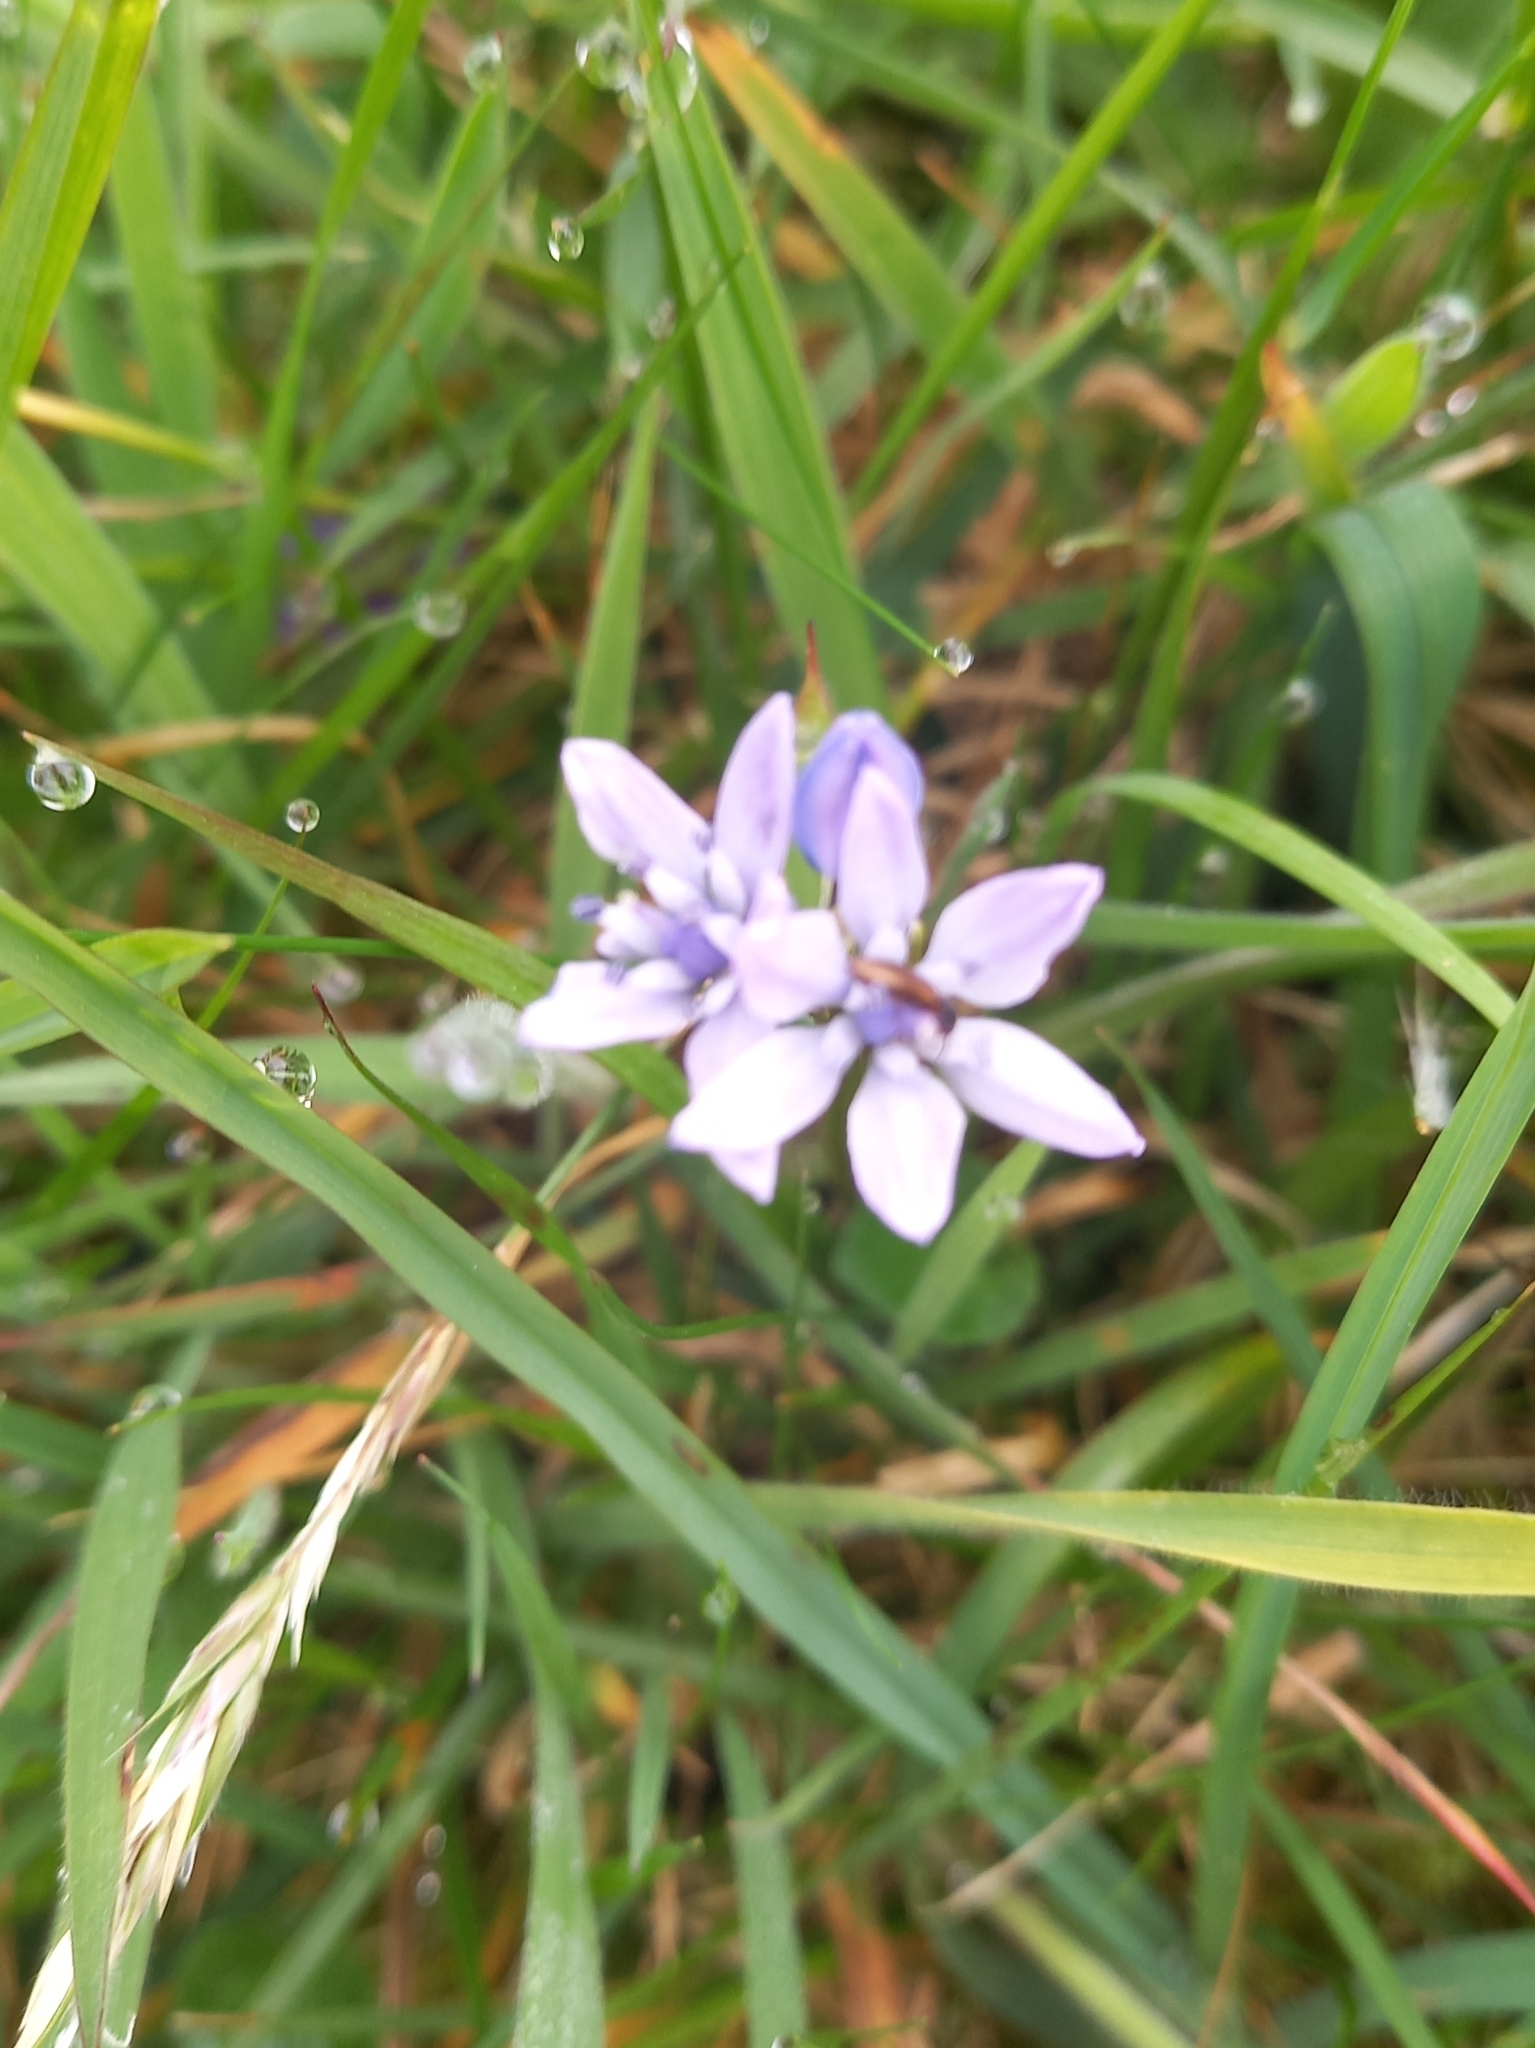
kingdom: Plantae
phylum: Tracheophyta
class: Liliopsida
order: Asparagales
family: Asparagaceae
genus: Scilla
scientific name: Scilla verna
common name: Spring squill
